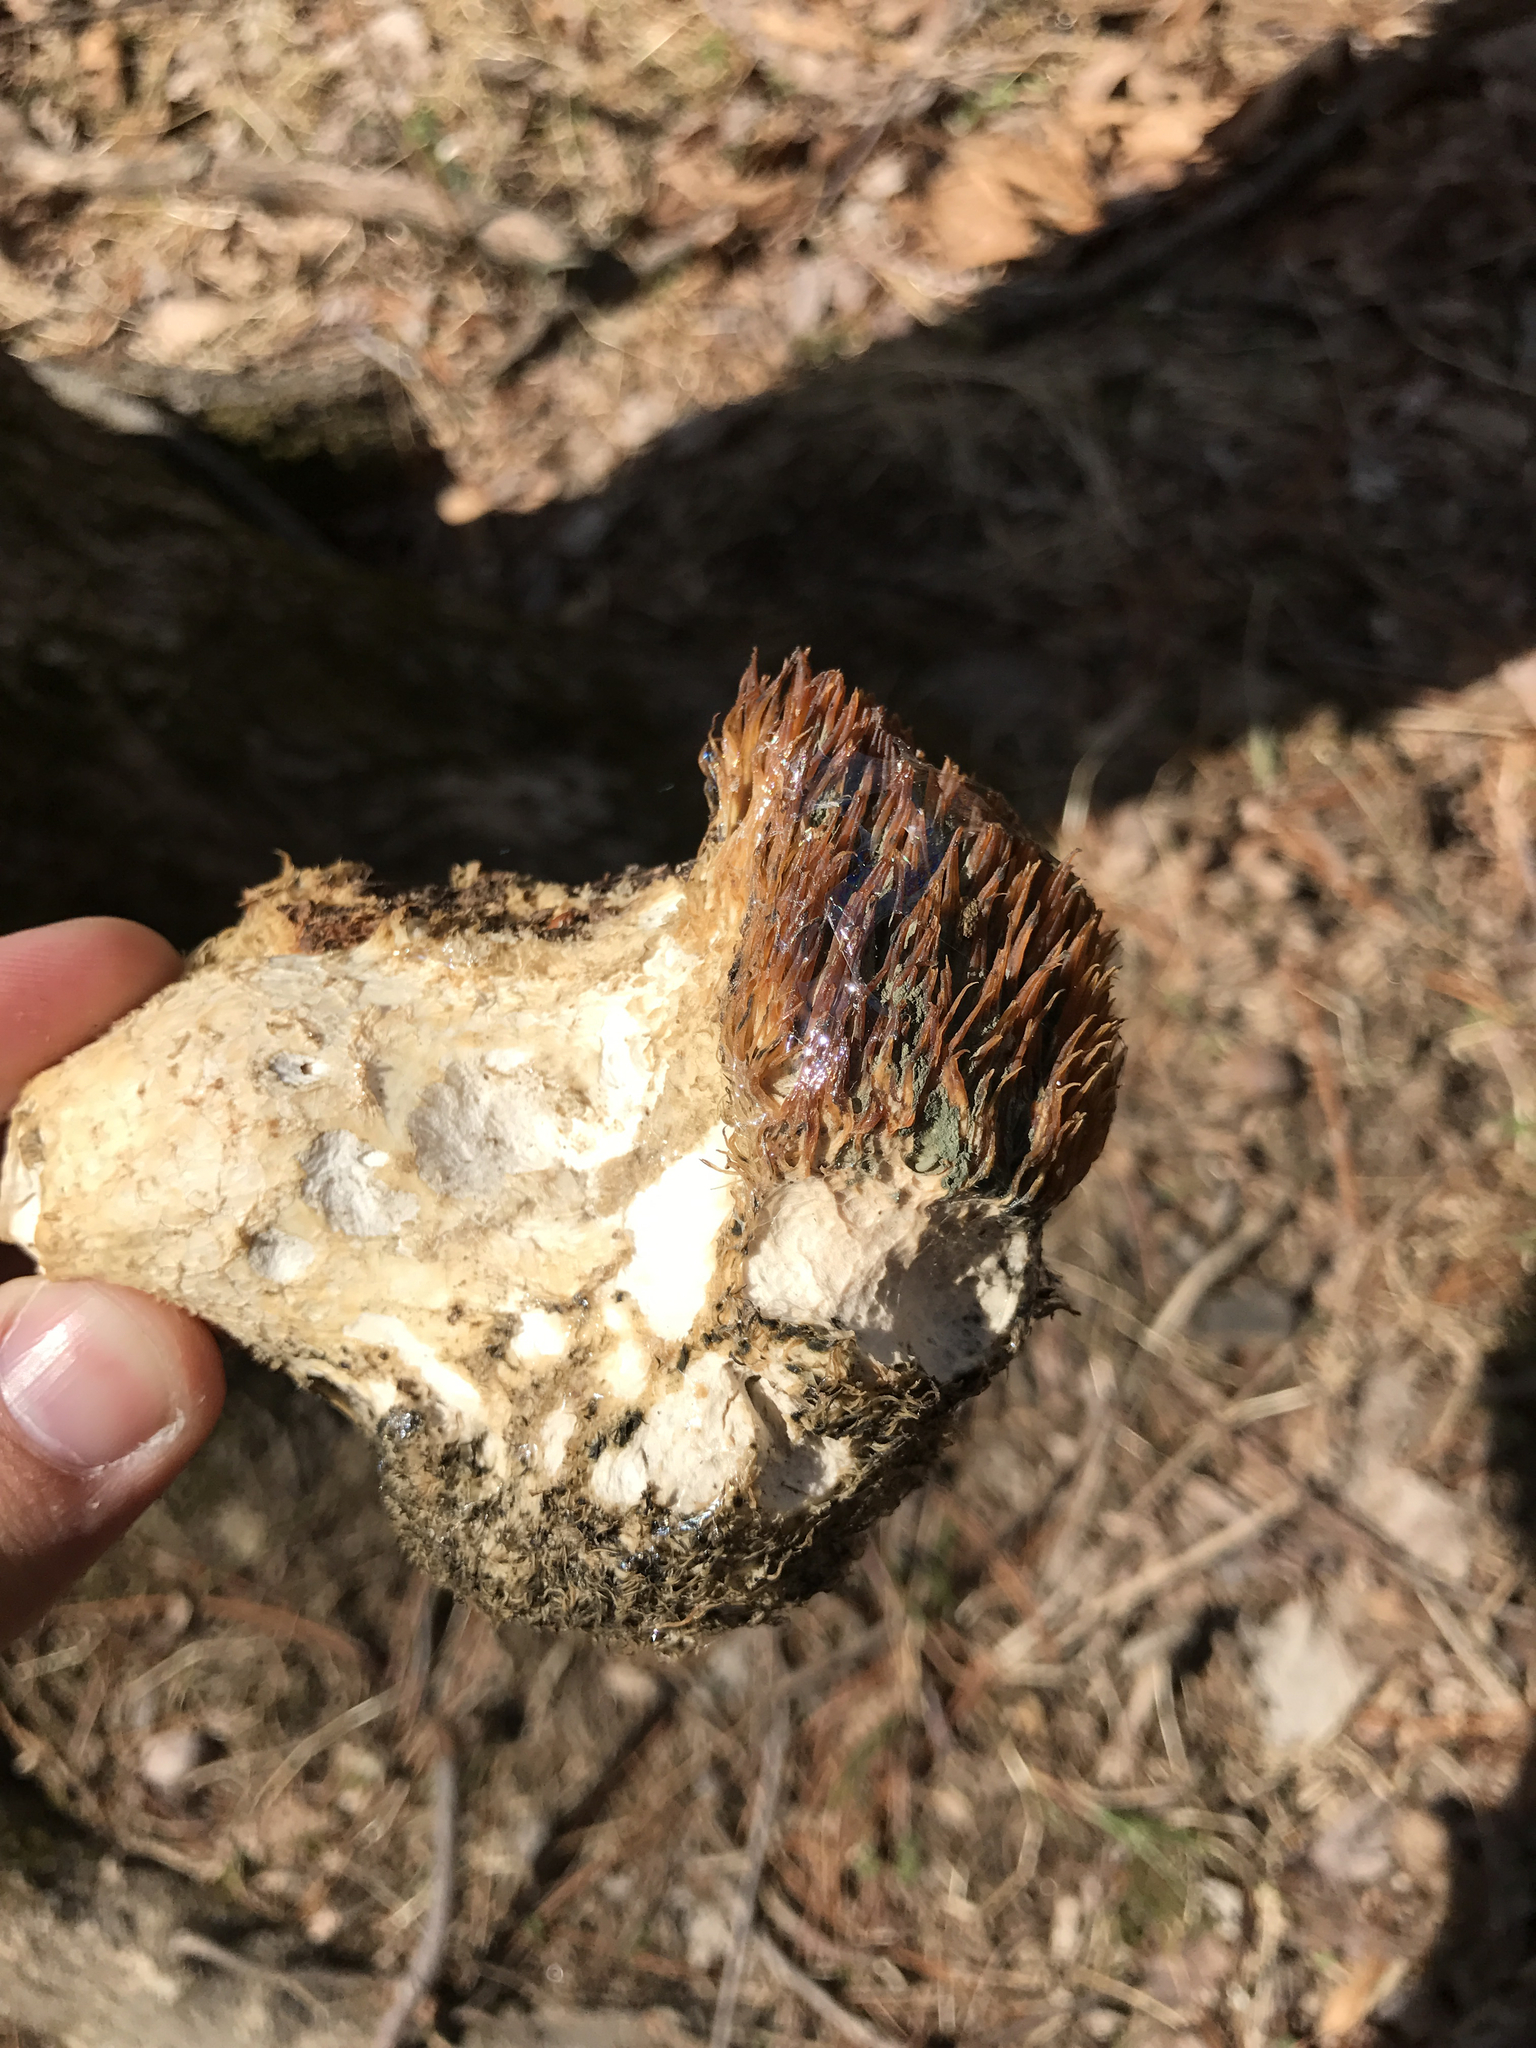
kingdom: Fungi
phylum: Basidiomycota
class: Agaricomycetes
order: Russulales
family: Hericiaceae
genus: Hericium
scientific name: Hericium erinaceus
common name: Bearded tooth
